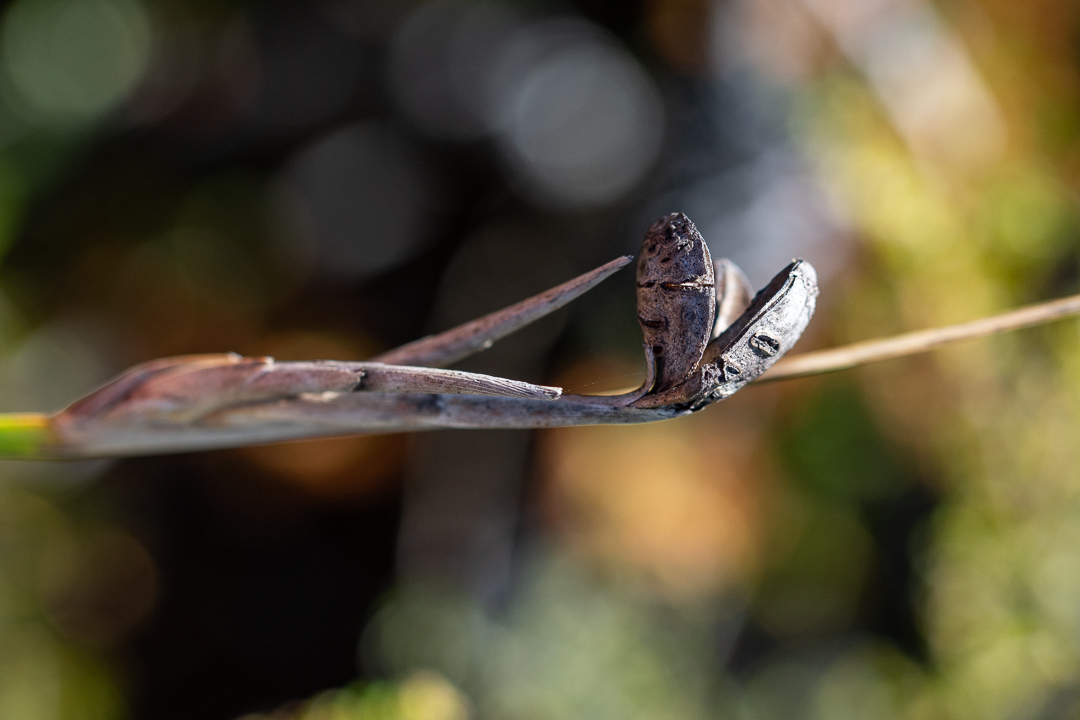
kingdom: Plantae
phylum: Tracheophyta
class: Liliopsida
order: Asparagales
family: Iridaceae
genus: Bobartia
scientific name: Bobartia gladiata
